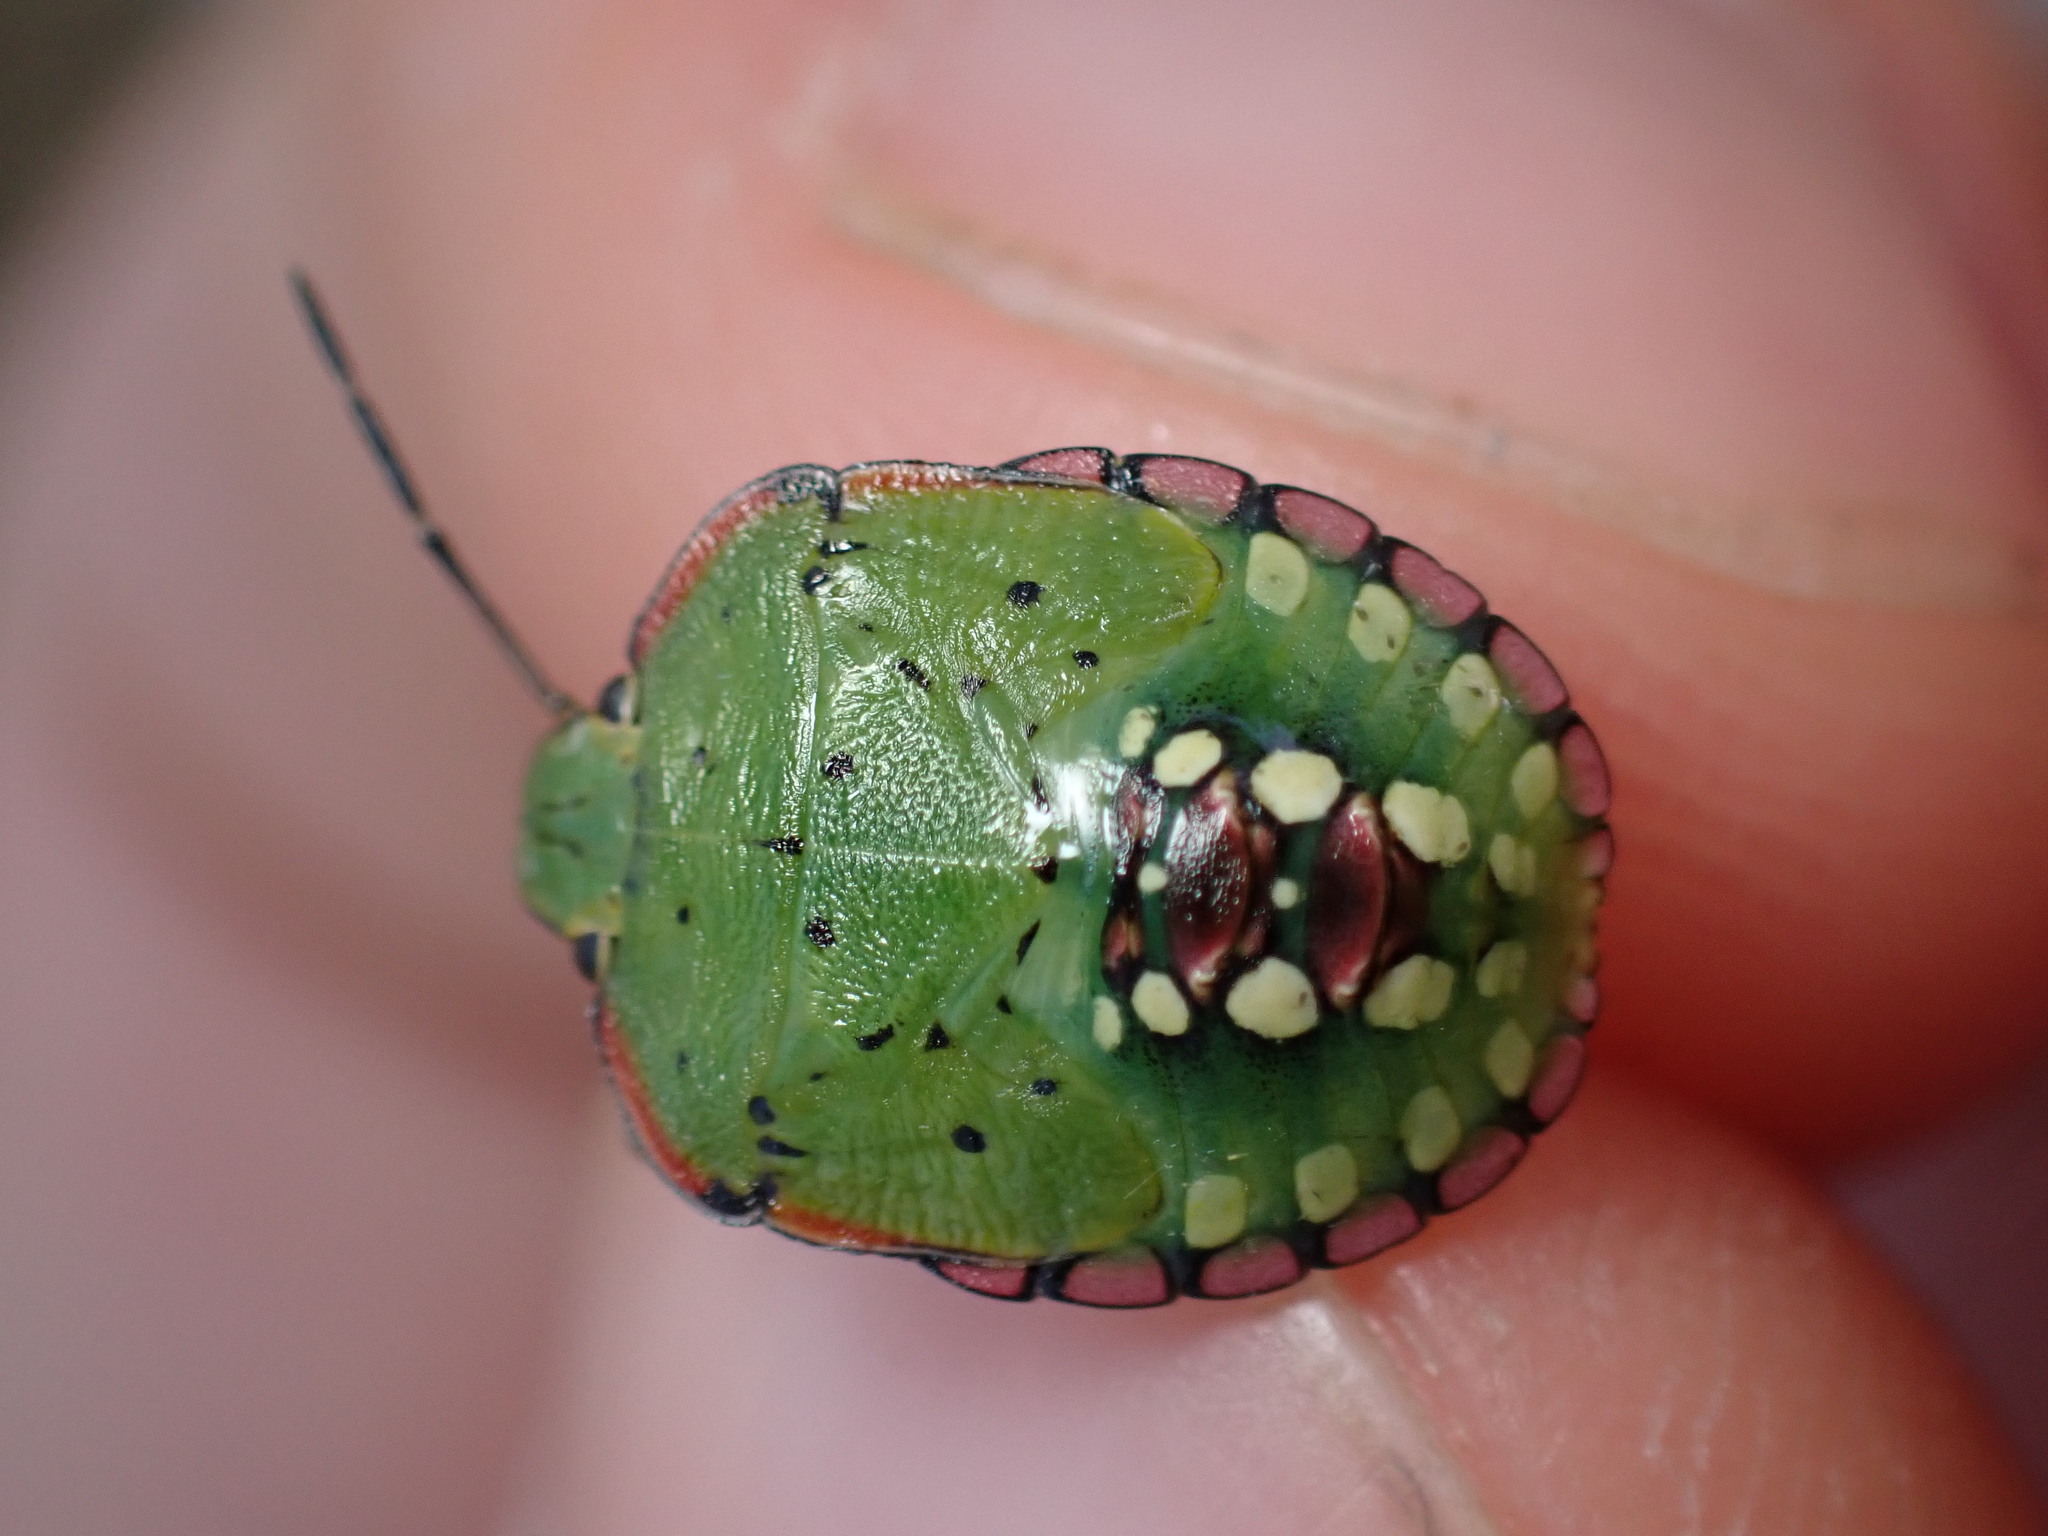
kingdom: Animalia
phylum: Arthropoda
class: Insecta
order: Hemiptera
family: Pentatomidae
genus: Nezara
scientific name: Nezara viridula
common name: Southern green stink bug
